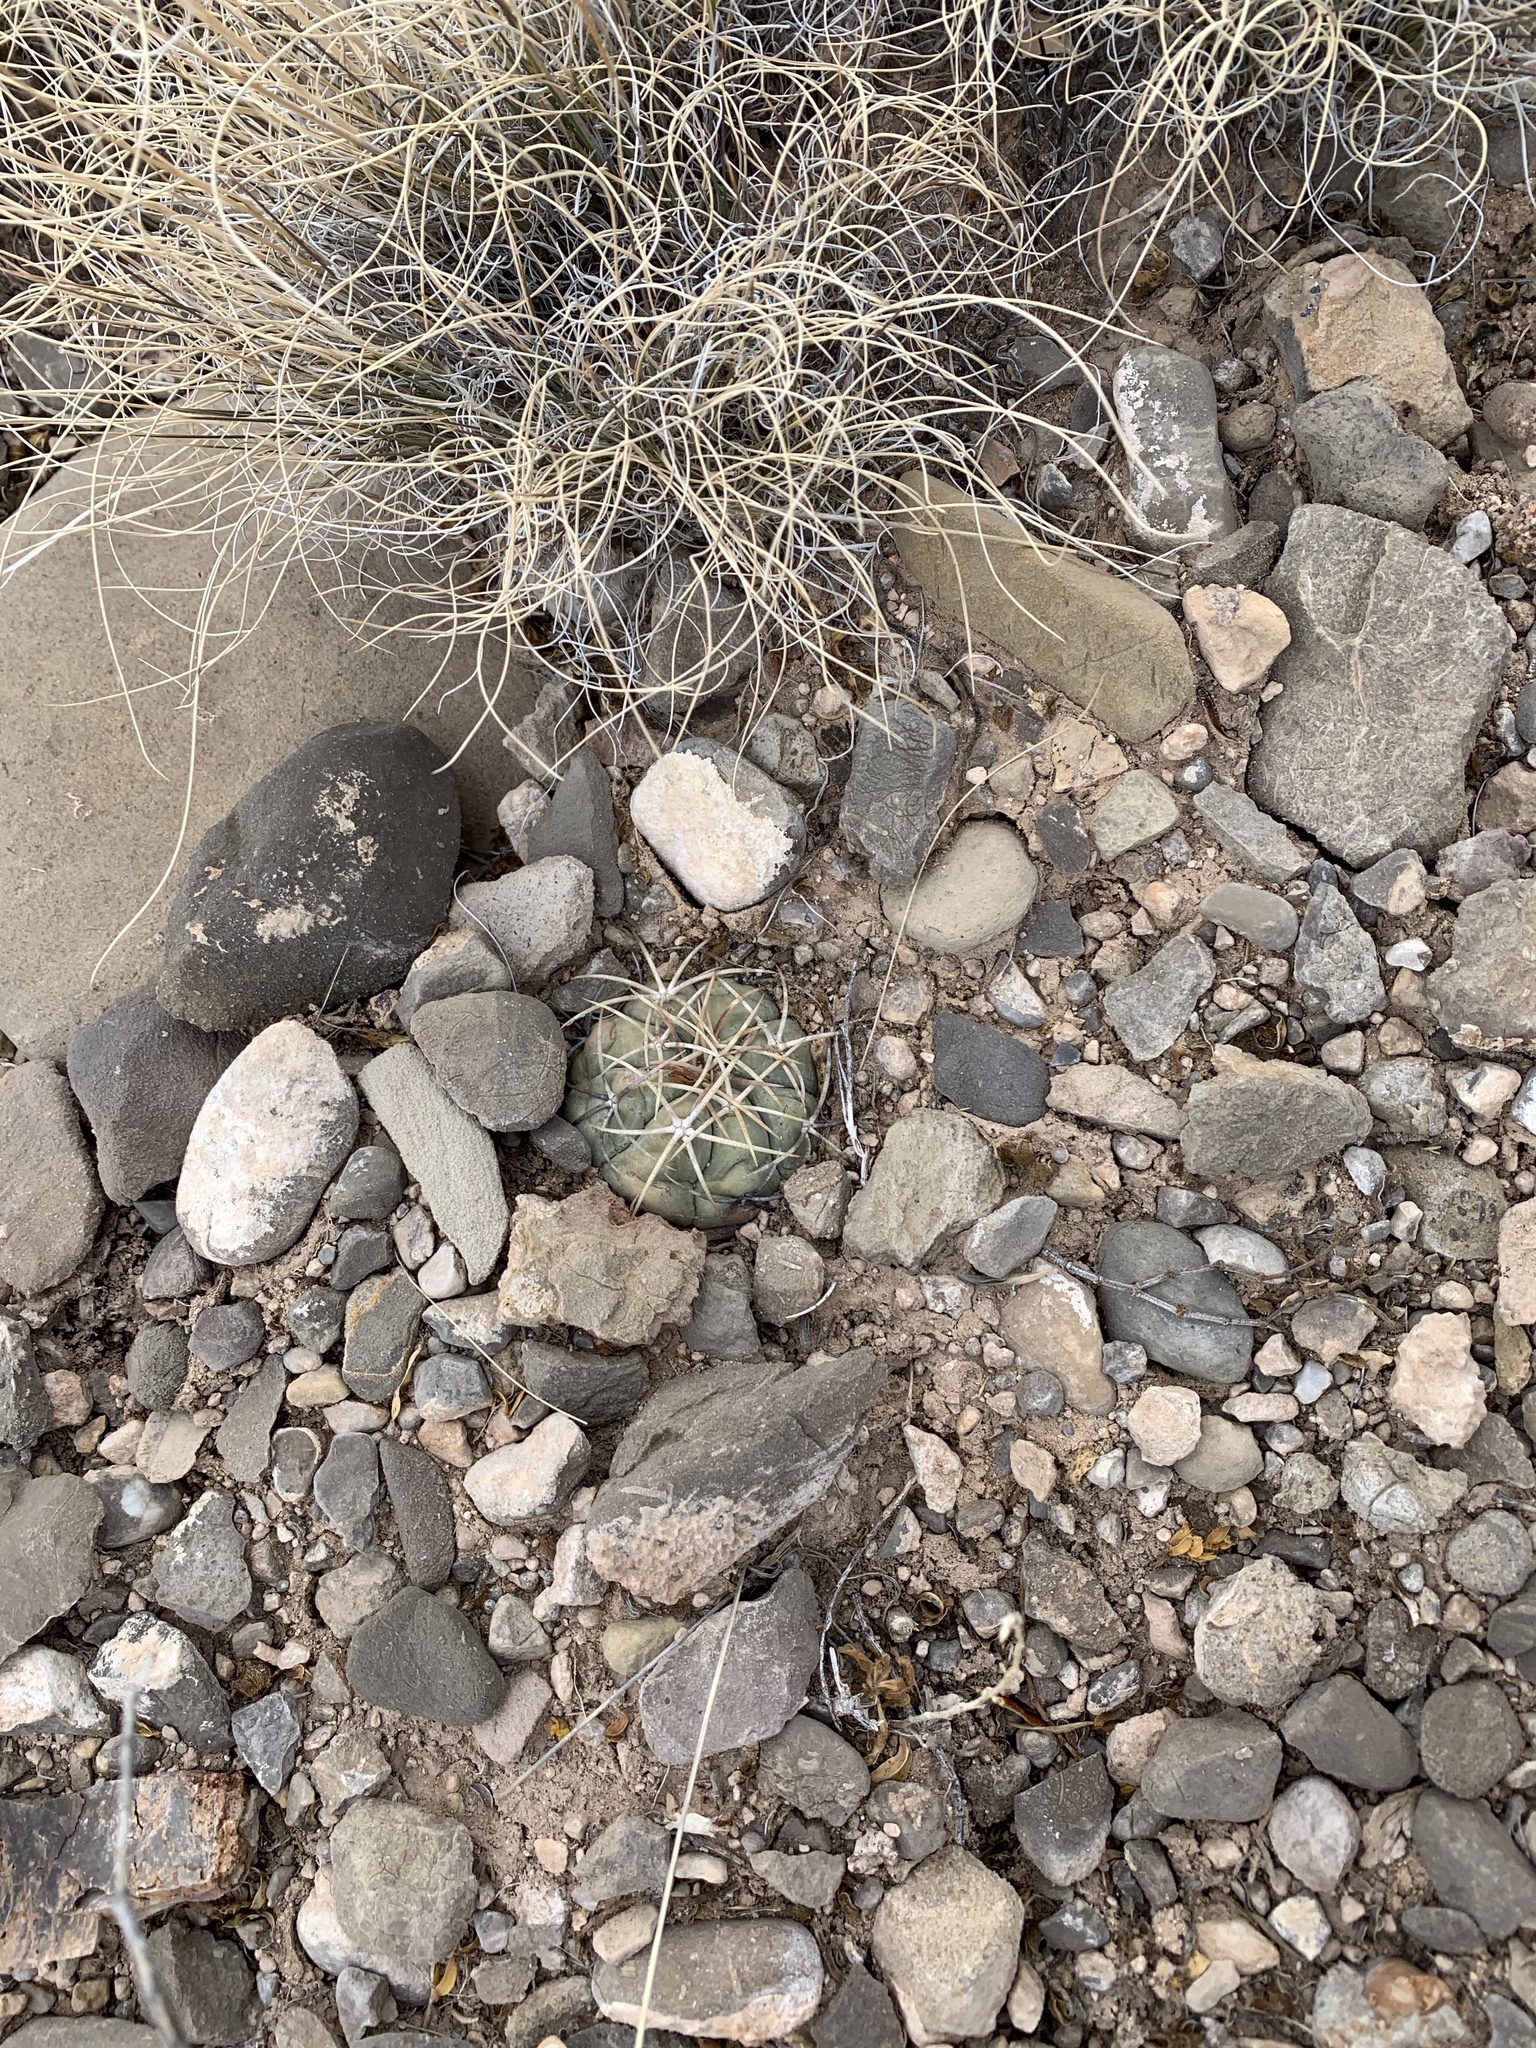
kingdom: Plantae
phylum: Tracheophyta
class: Magnoliopsida
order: Caryophyllales
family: Cactaceae
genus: Echinocactus
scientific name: Echinocactus horizonthalonius
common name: Devilshead
